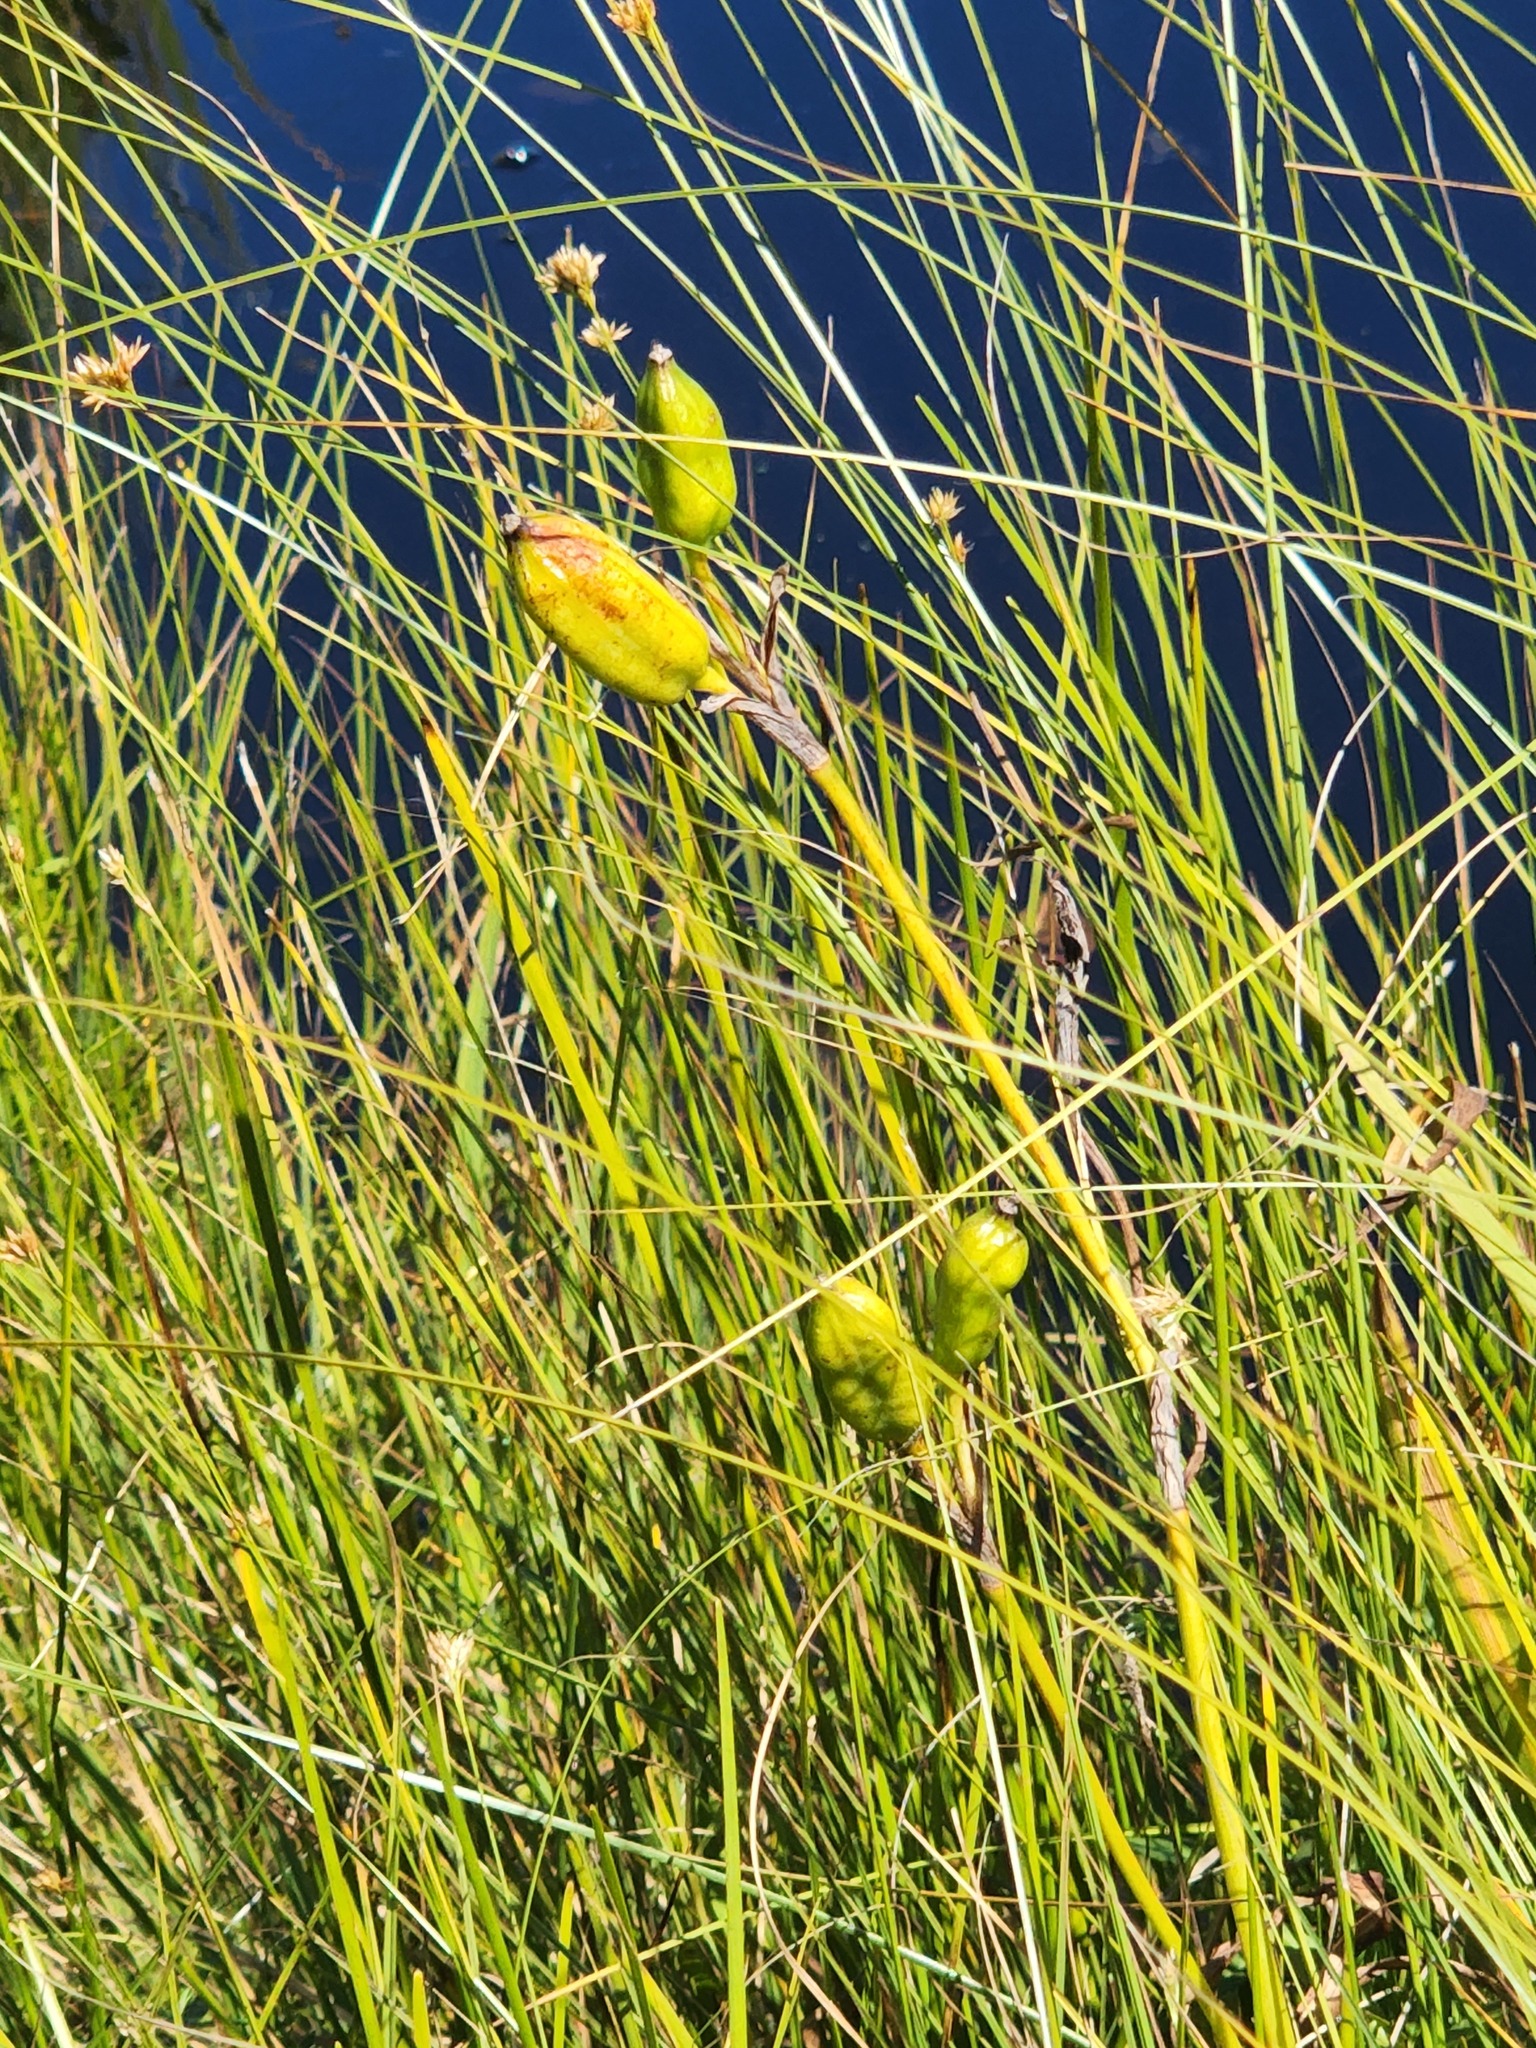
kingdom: Plantae
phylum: Tracheophyta
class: Liliopsida
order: Asparagales
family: Iridaceae
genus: Iris
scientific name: Iris versicolor
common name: Purple iris
